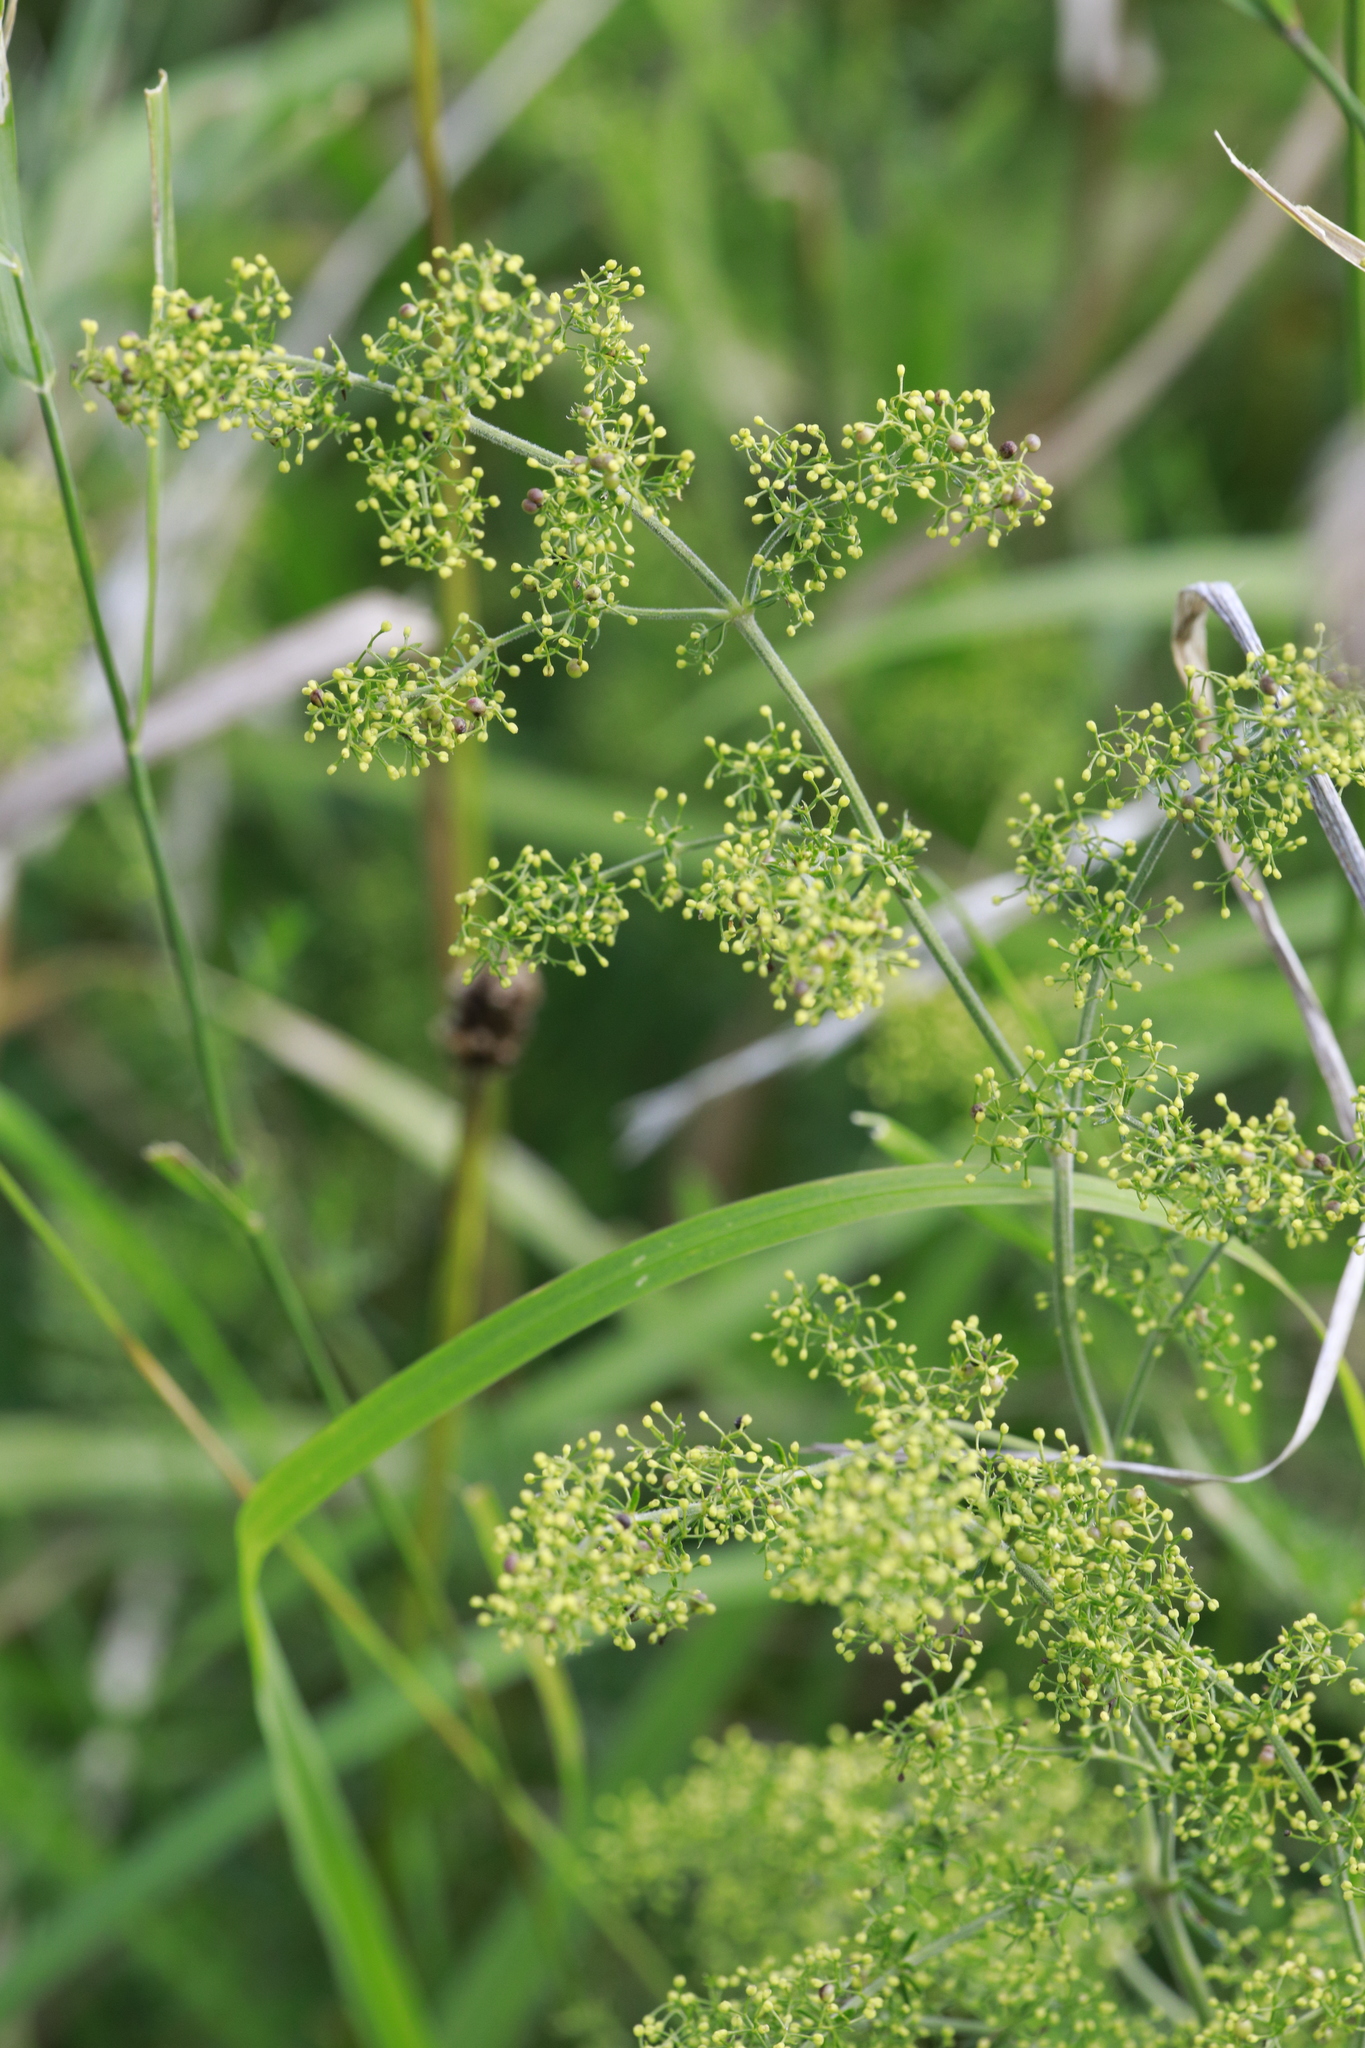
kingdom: Plantae
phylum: Tracheophyta
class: Magnoliopsida
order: Gentianales
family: Rubiaceae
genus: Galium
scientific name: Galium verum
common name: Lady's bedstraw
